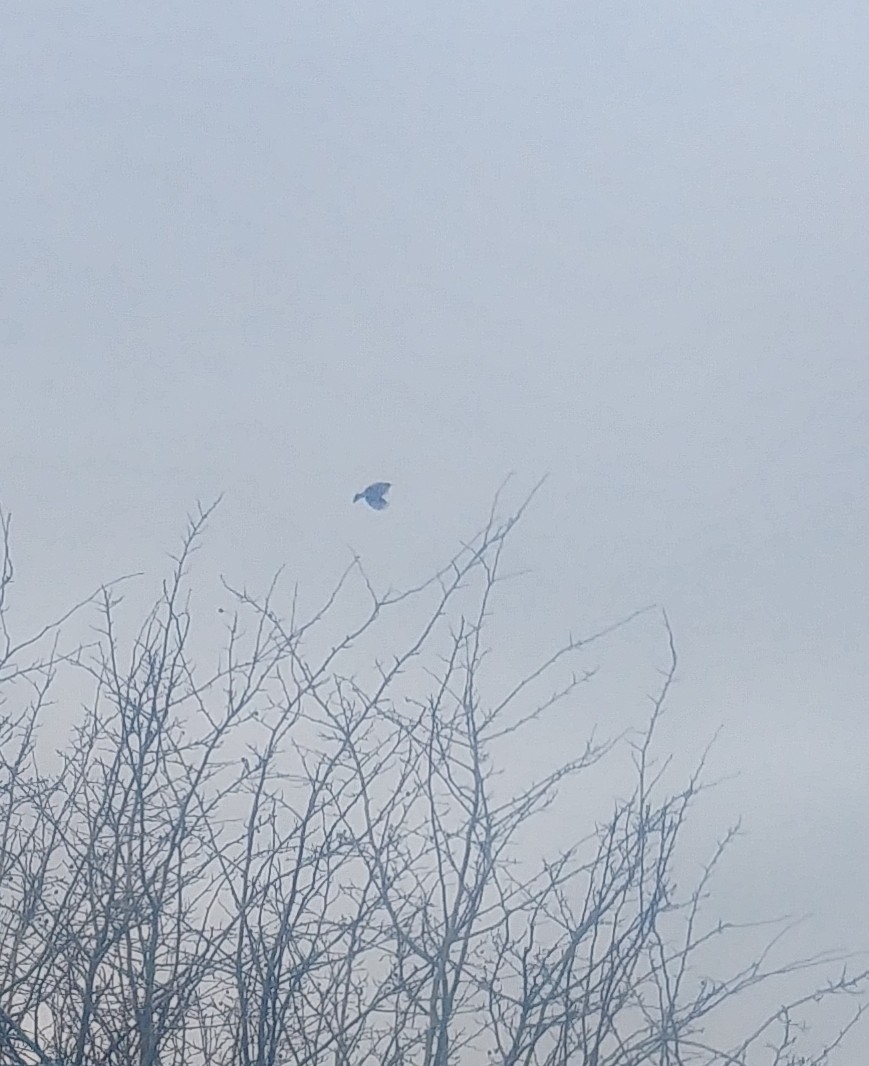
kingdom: Animalia
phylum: Chordata
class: Aves
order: Passeriformes
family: Muscicapidae
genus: Saxicola
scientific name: Saxicola rubicola
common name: European stonechat
